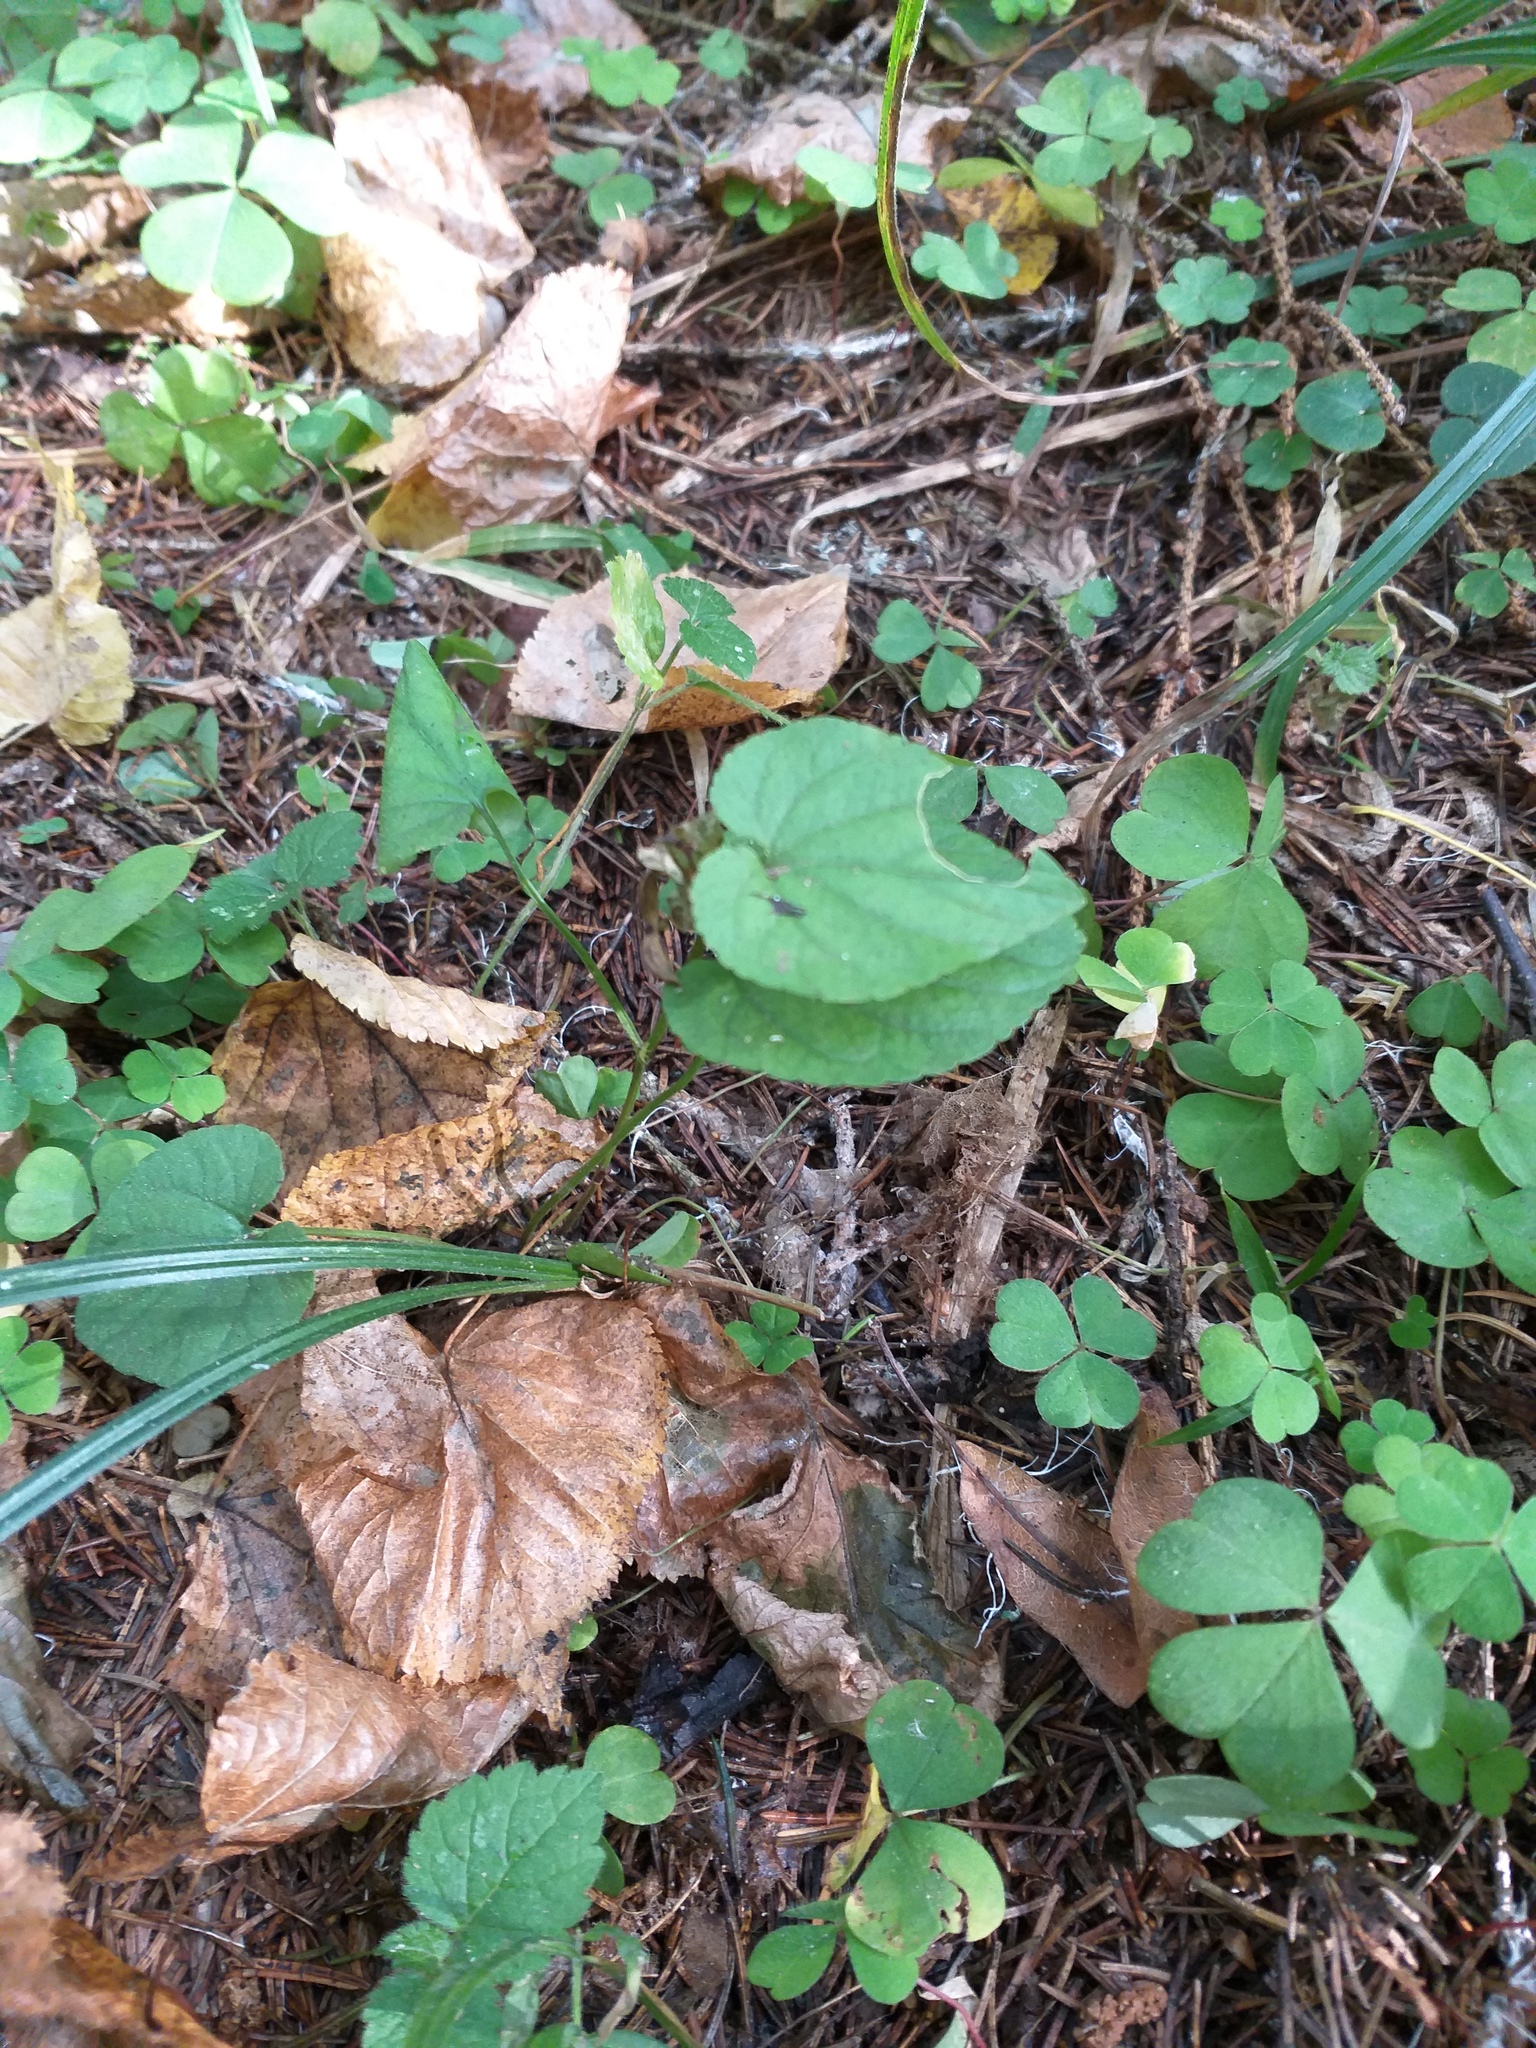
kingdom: Plantae
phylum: Tracheophyta
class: Magnoliopsida
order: Malpighiales
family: Violaceae
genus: Viola
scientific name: Viola
